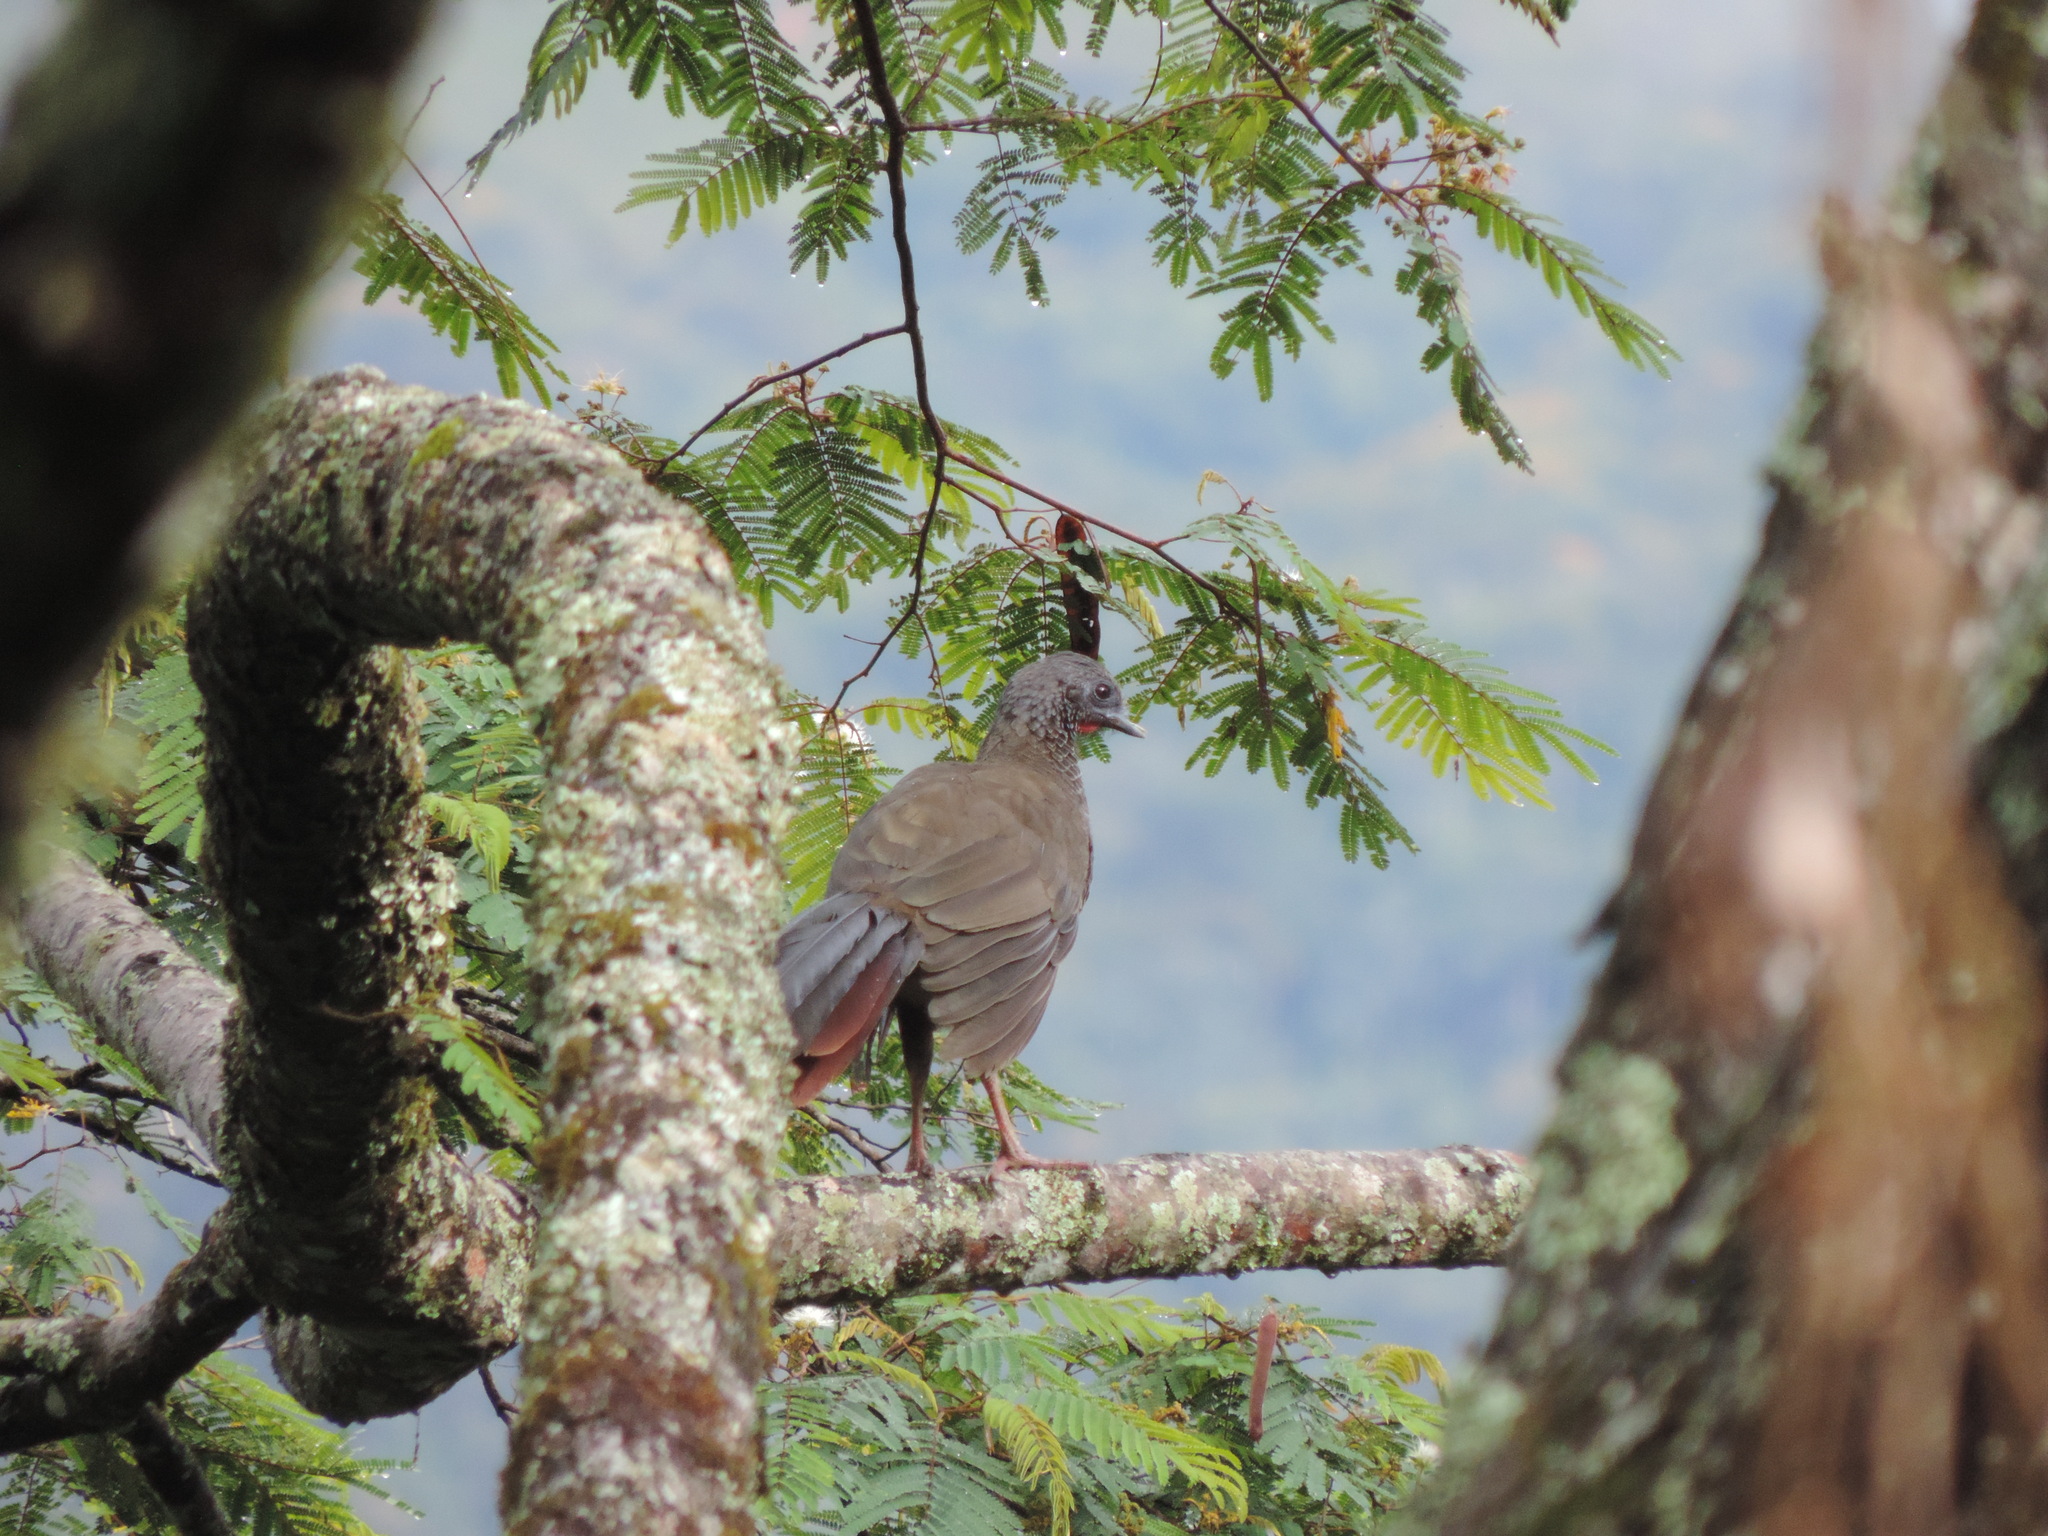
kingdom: Animalia
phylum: Chordata
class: Aves
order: Galliformes
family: Cracidae
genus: Ortalis
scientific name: Ortalis columbiana
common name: Colombian chachalaca
